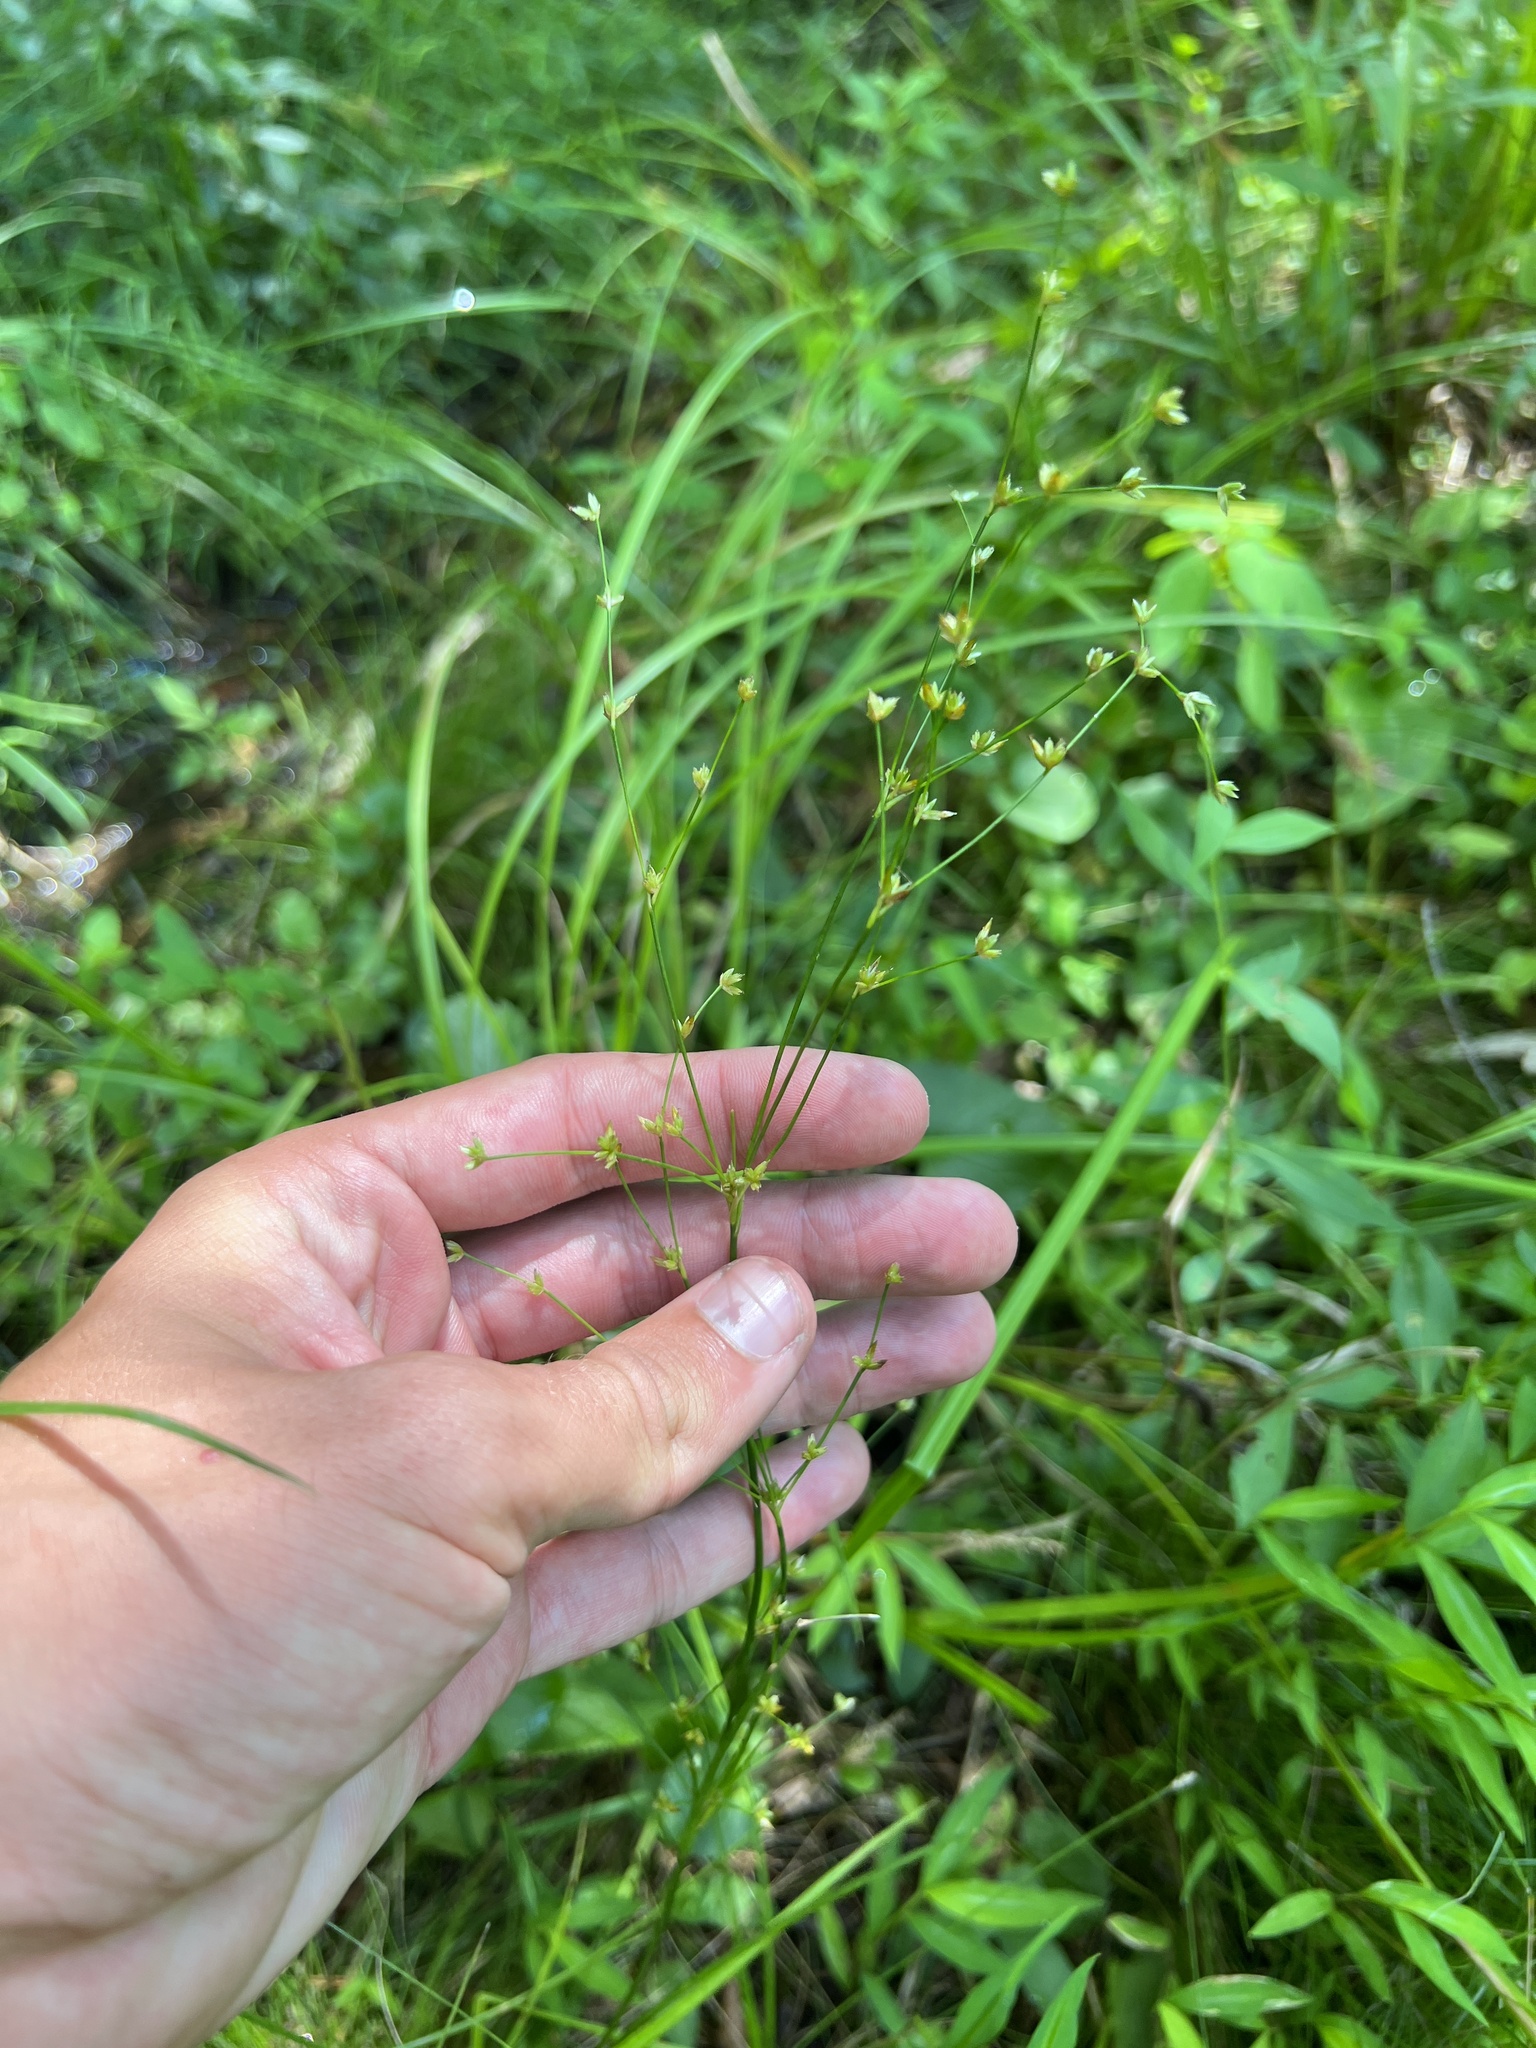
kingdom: Plantae
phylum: Tracheophyta
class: Liliopsida
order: Poales
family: Juncaceae
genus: Juncus
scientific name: Juncus subcaudatus
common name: Engelmann's rush
